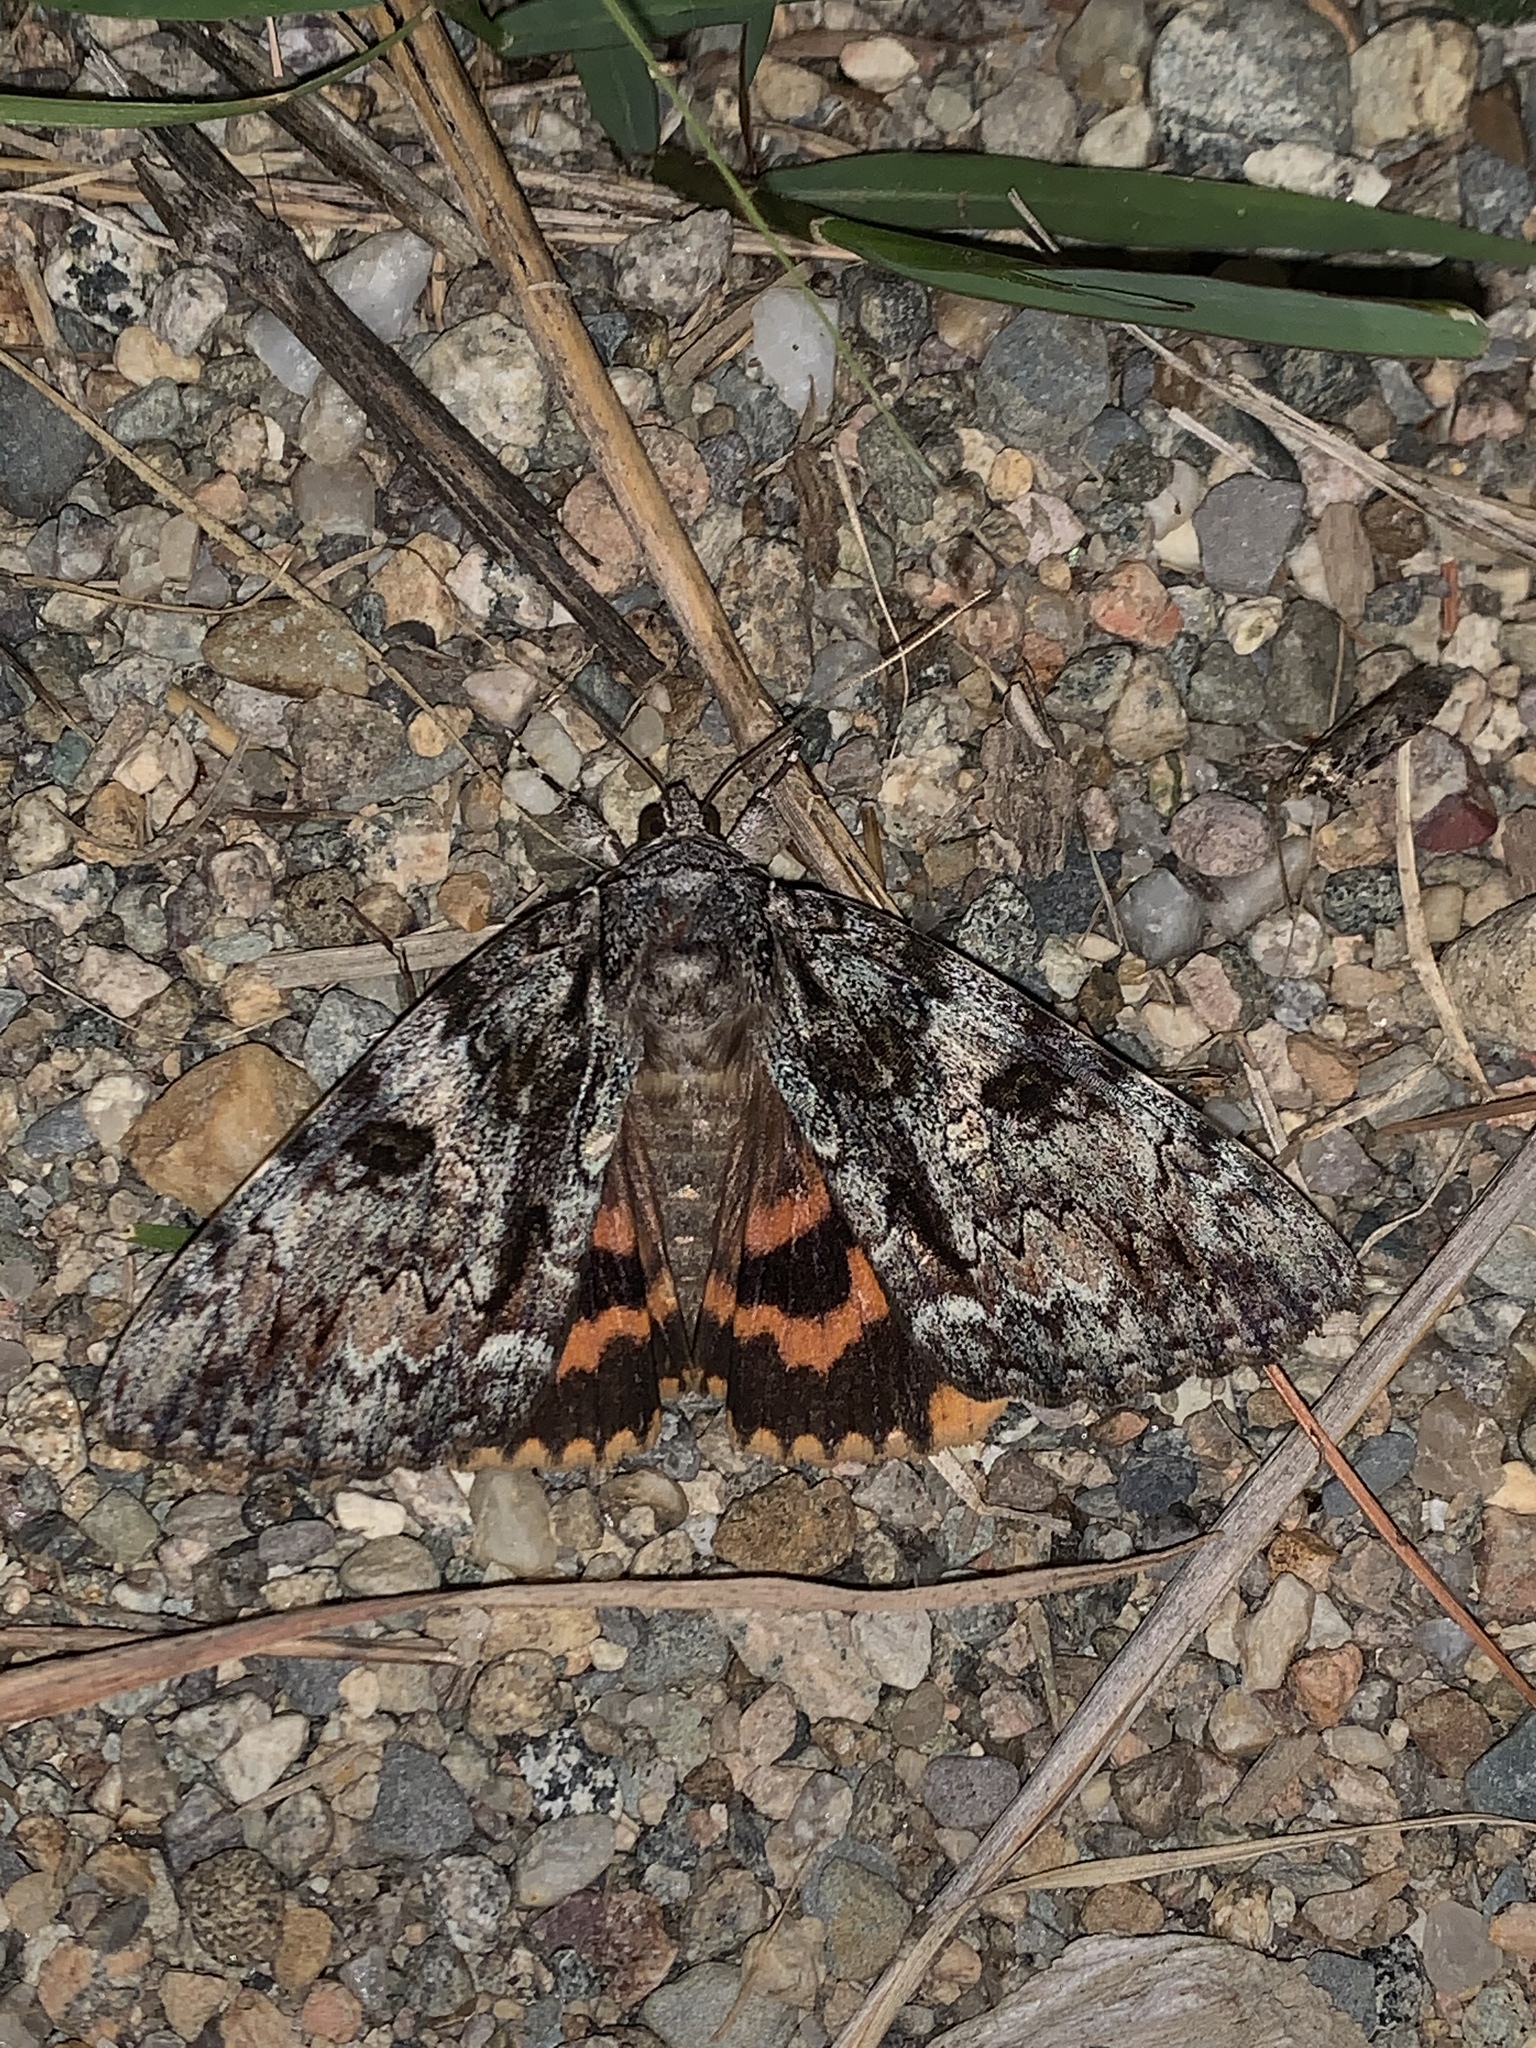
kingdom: Animalia
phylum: Arthropoda
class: Insecta
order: Lepidoptera
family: Erebidae
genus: Catocala
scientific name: Catocala palaeogama
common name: Oldwife underwing
